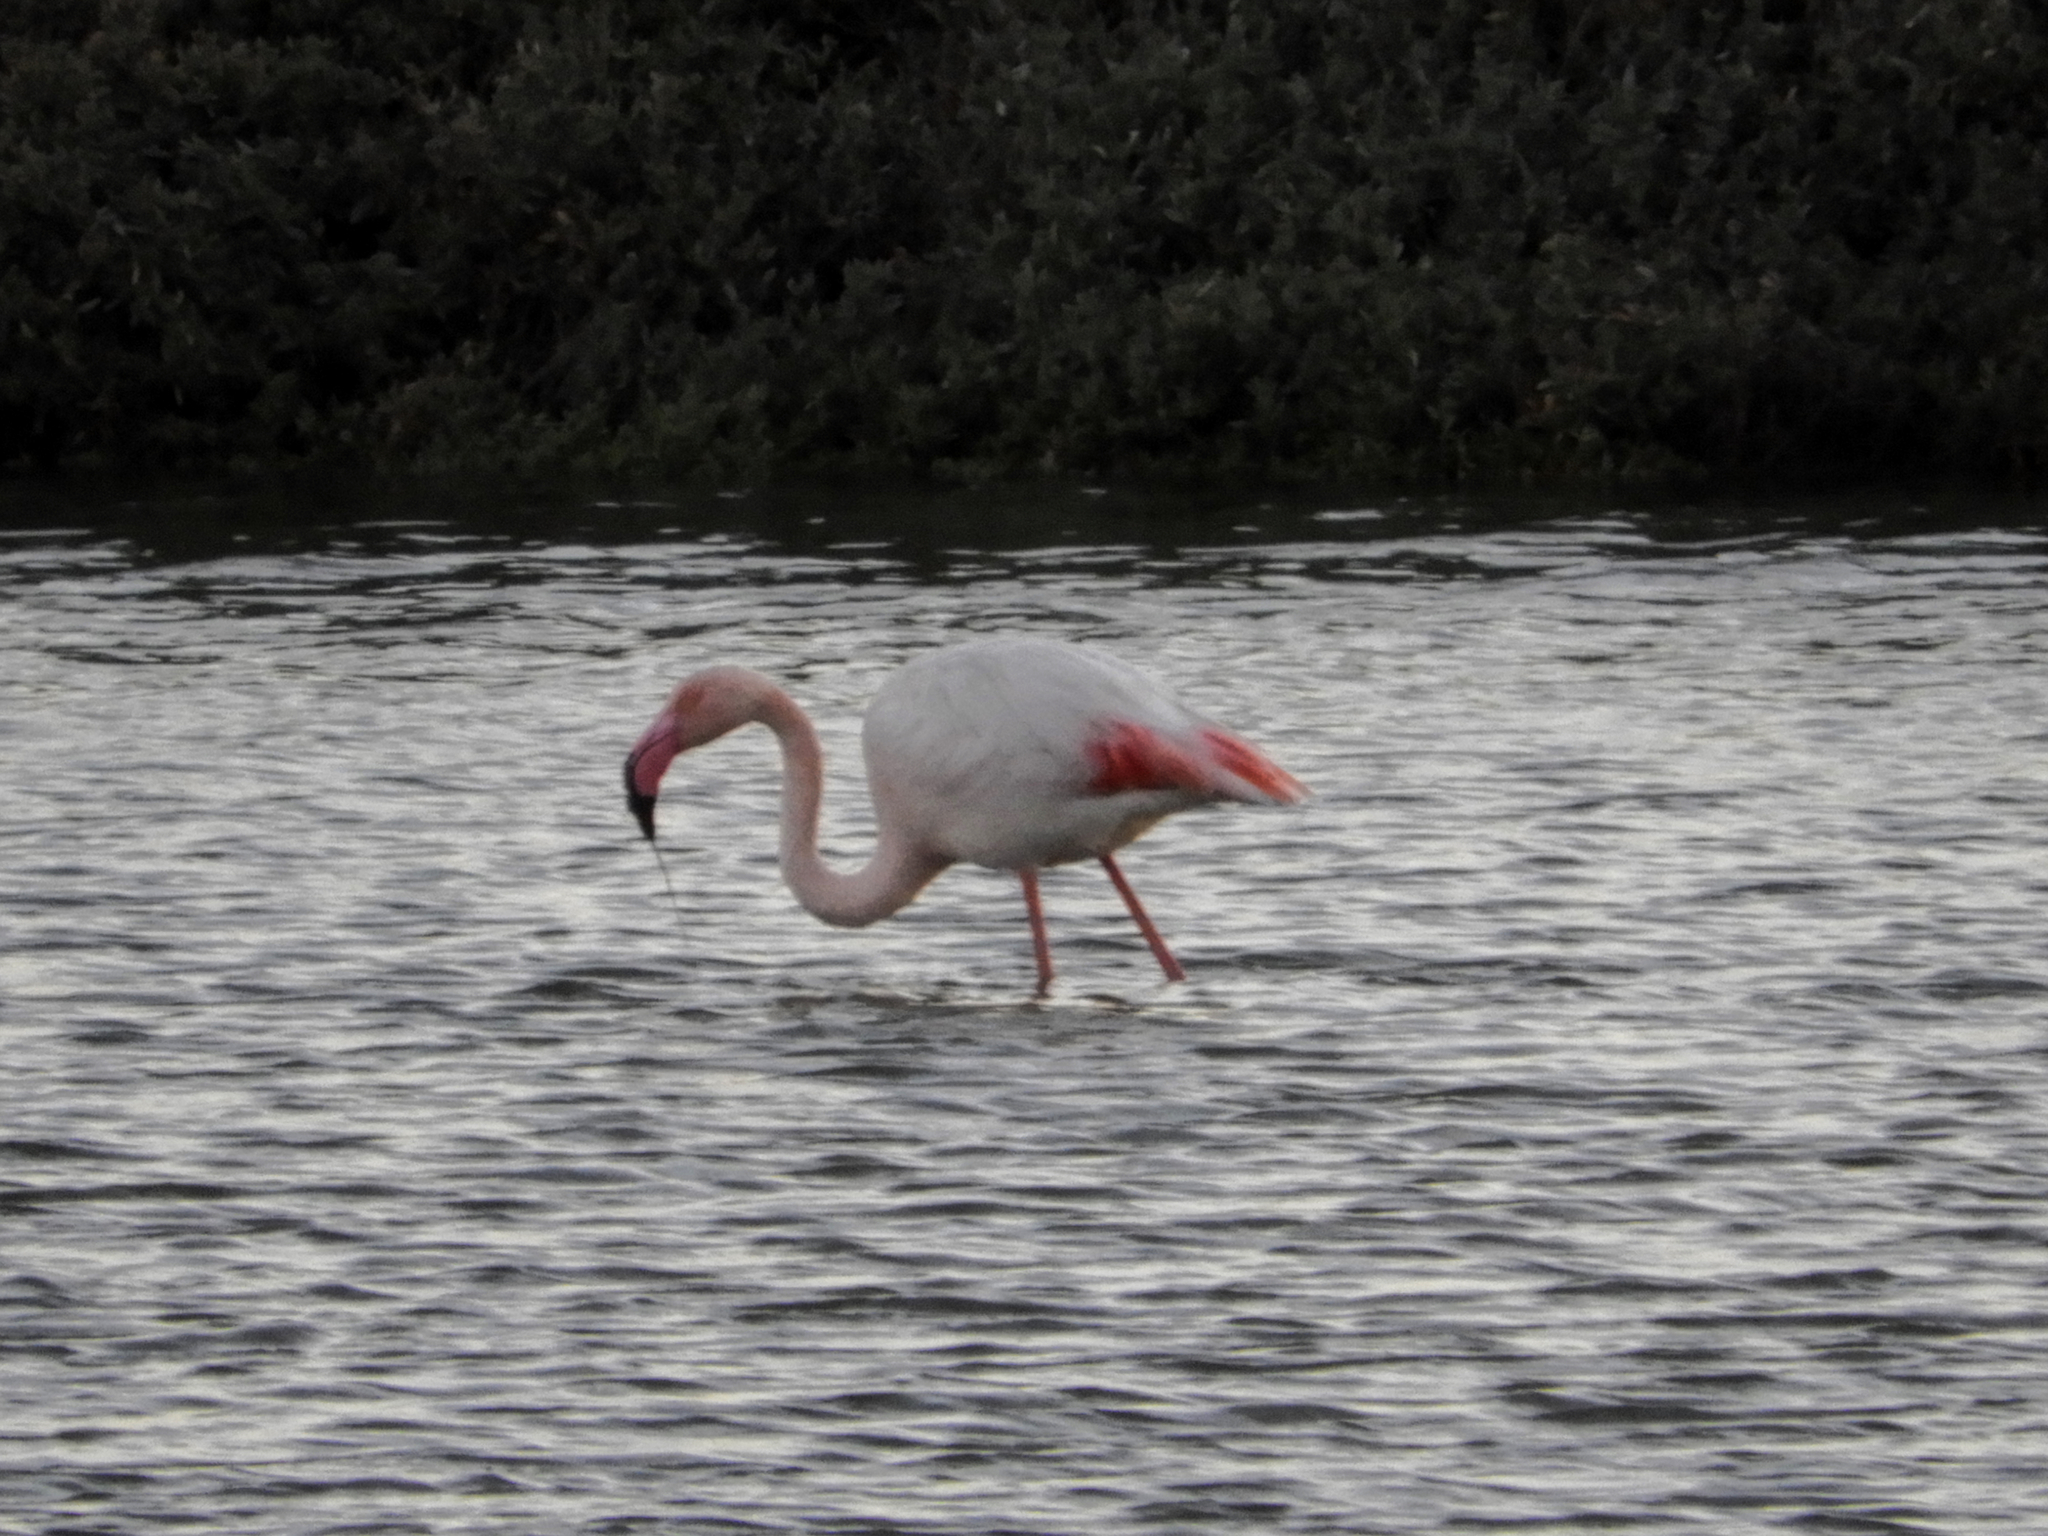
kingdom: Animalia
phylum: Chordata
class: Aves
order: Phoenicopteriformes
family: Phoenicopteridae
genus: Phoenicopterus
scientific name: Phoenicopterus roseus
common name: Greater flamingo
